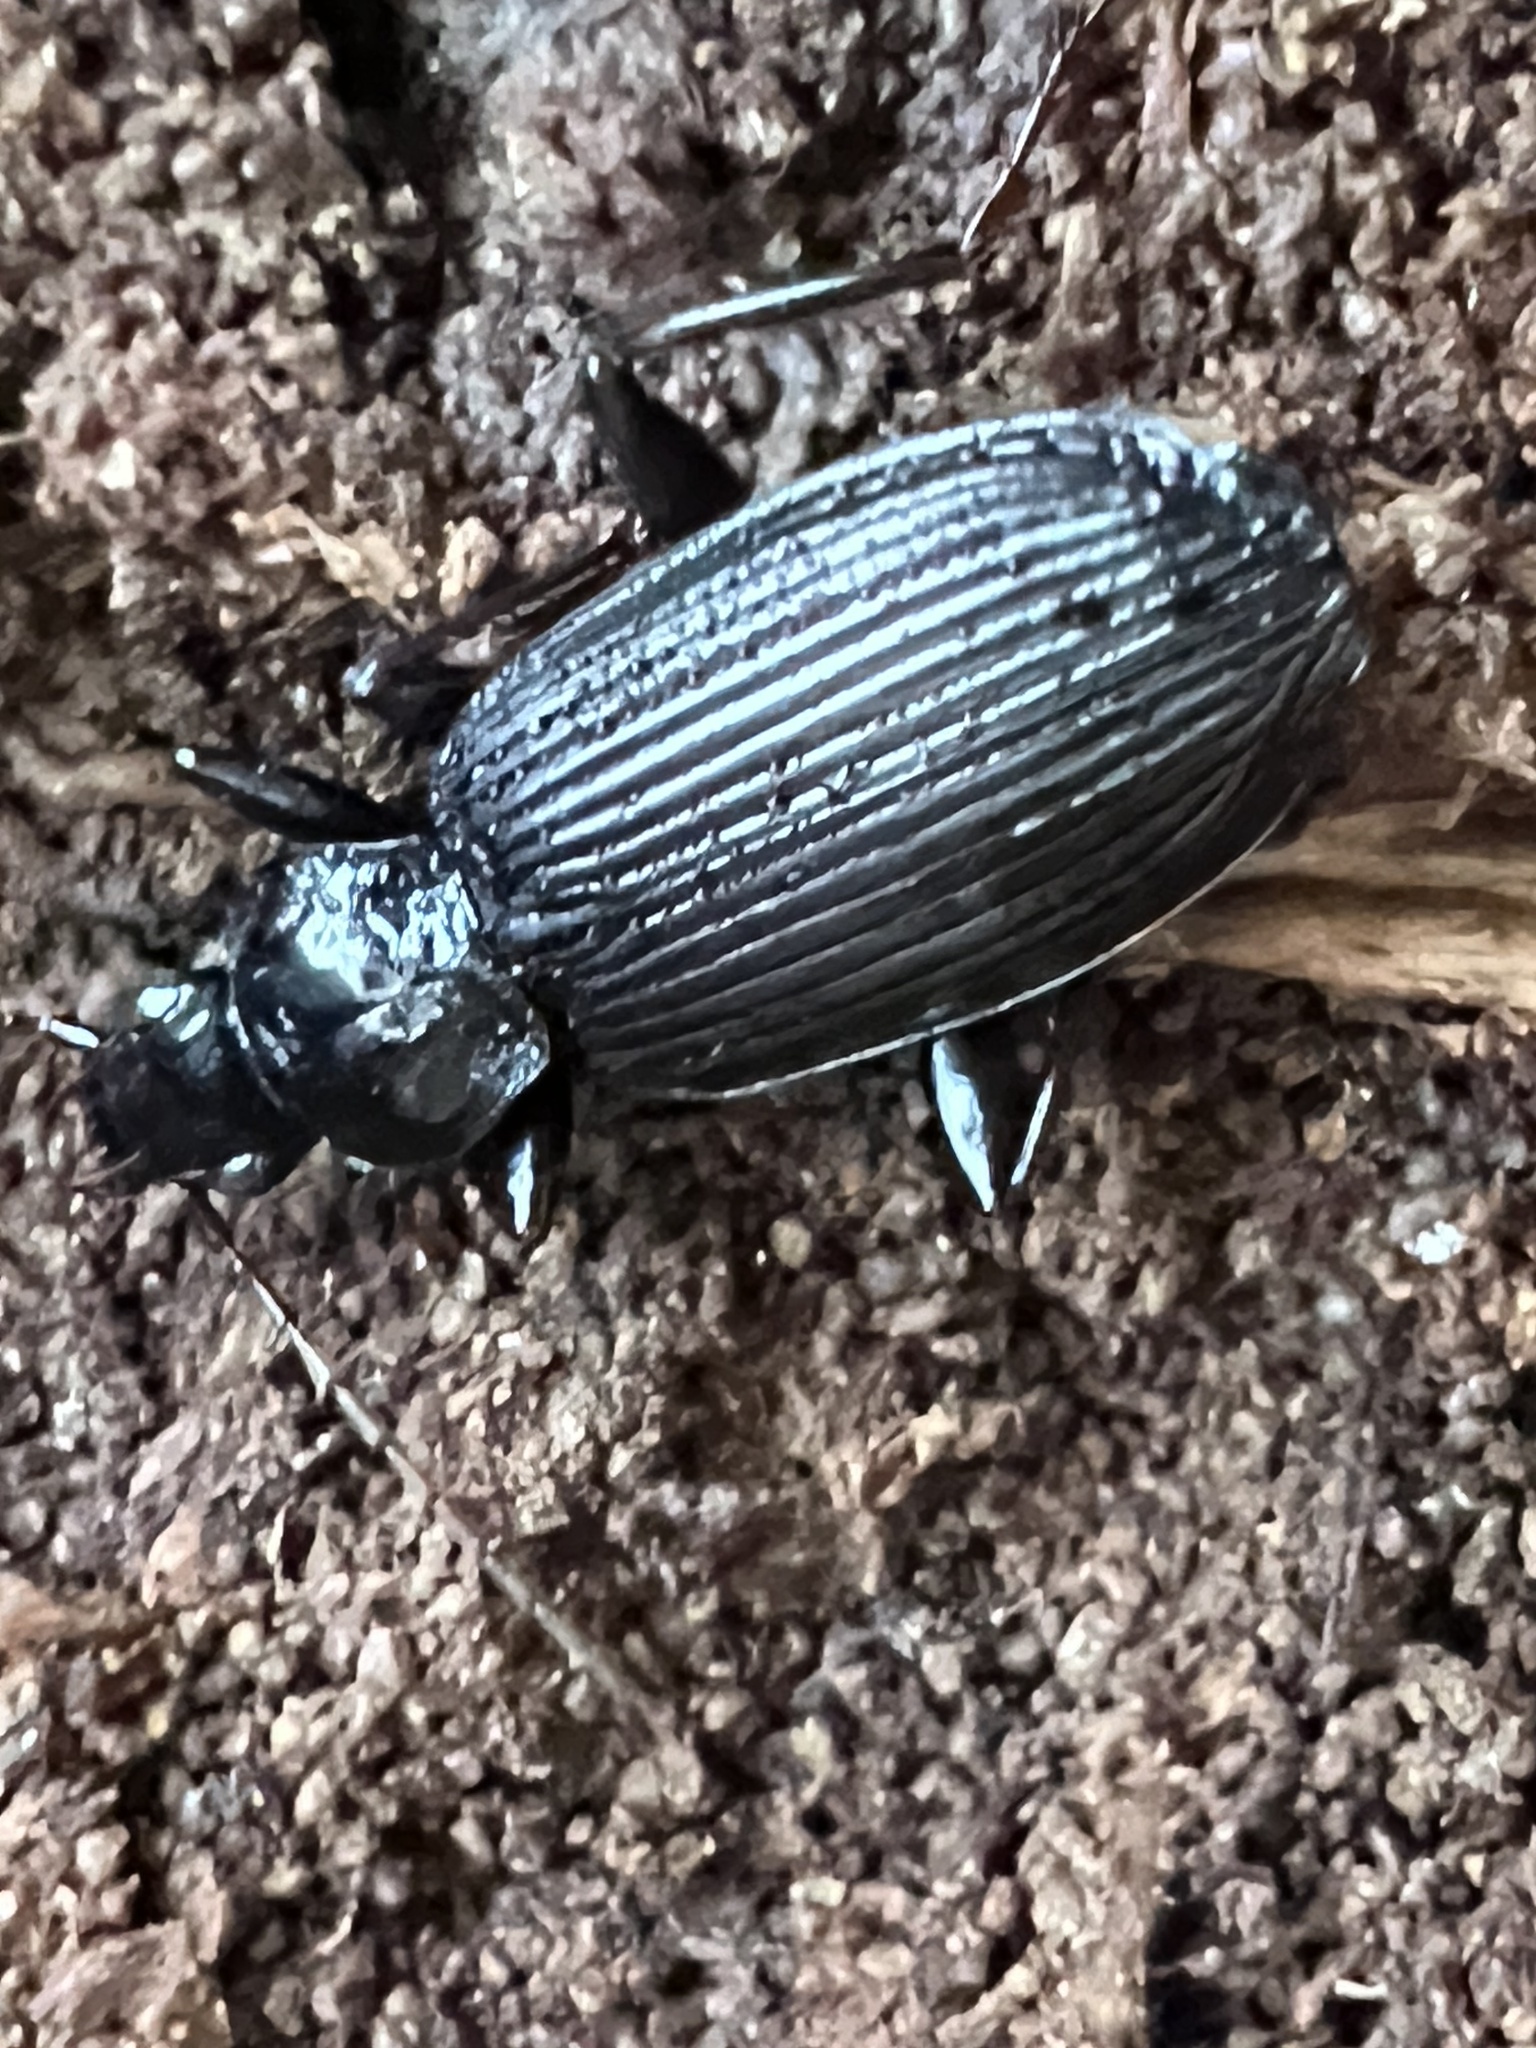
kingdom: Animalia
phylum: Arthropoda
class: Insecta
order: Coleoptera
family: Carabidae
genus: Platynus
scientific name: Platynus decentis
